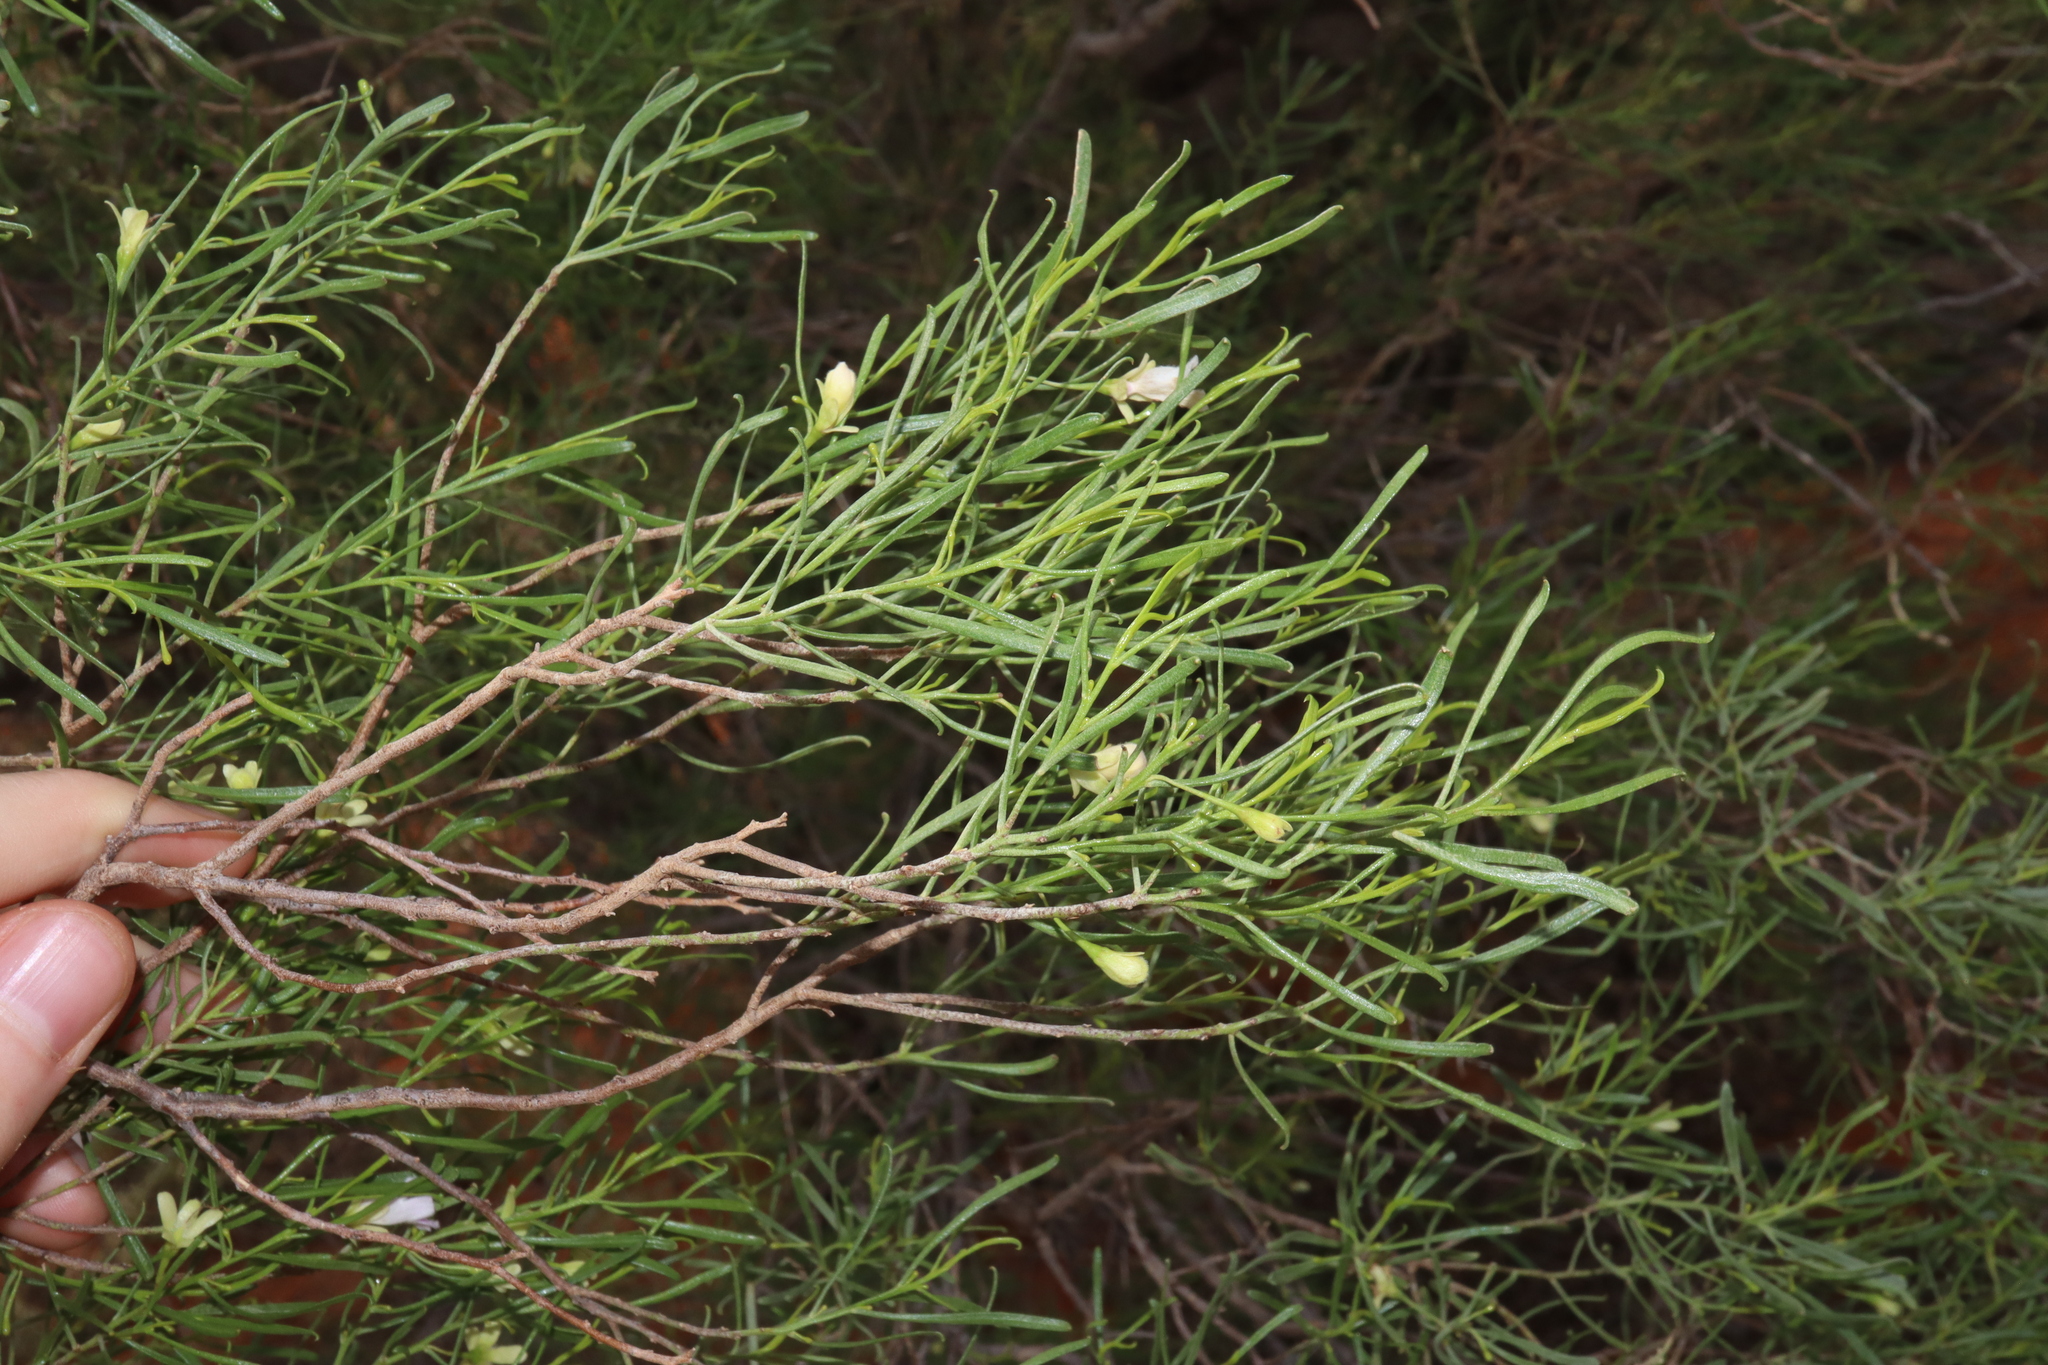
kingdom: Plantae
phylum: Tracheophyta
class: Magnoliopsida
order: Lamiales
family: Scrophulariaceae
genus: Eremophila
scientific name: Eremophila sturtii
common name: Narrow-leaf emubush
